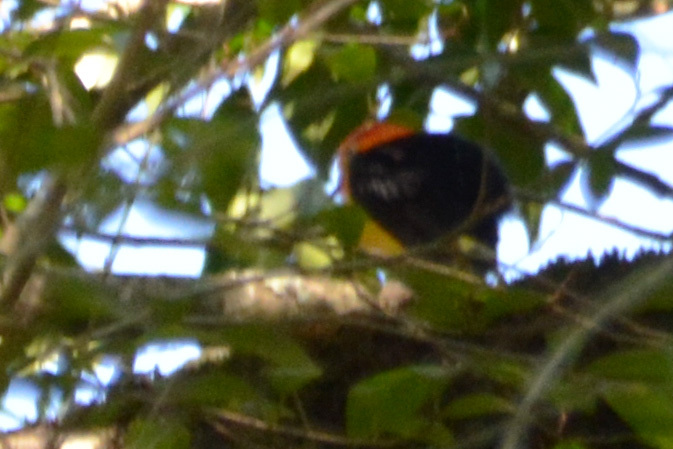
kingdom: Animalia
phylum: Chordata
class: Aves
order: Passeriformes
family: Pipridae
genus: Pipra
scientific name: Pipra fasciicauda
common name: Band-tailed manakin
